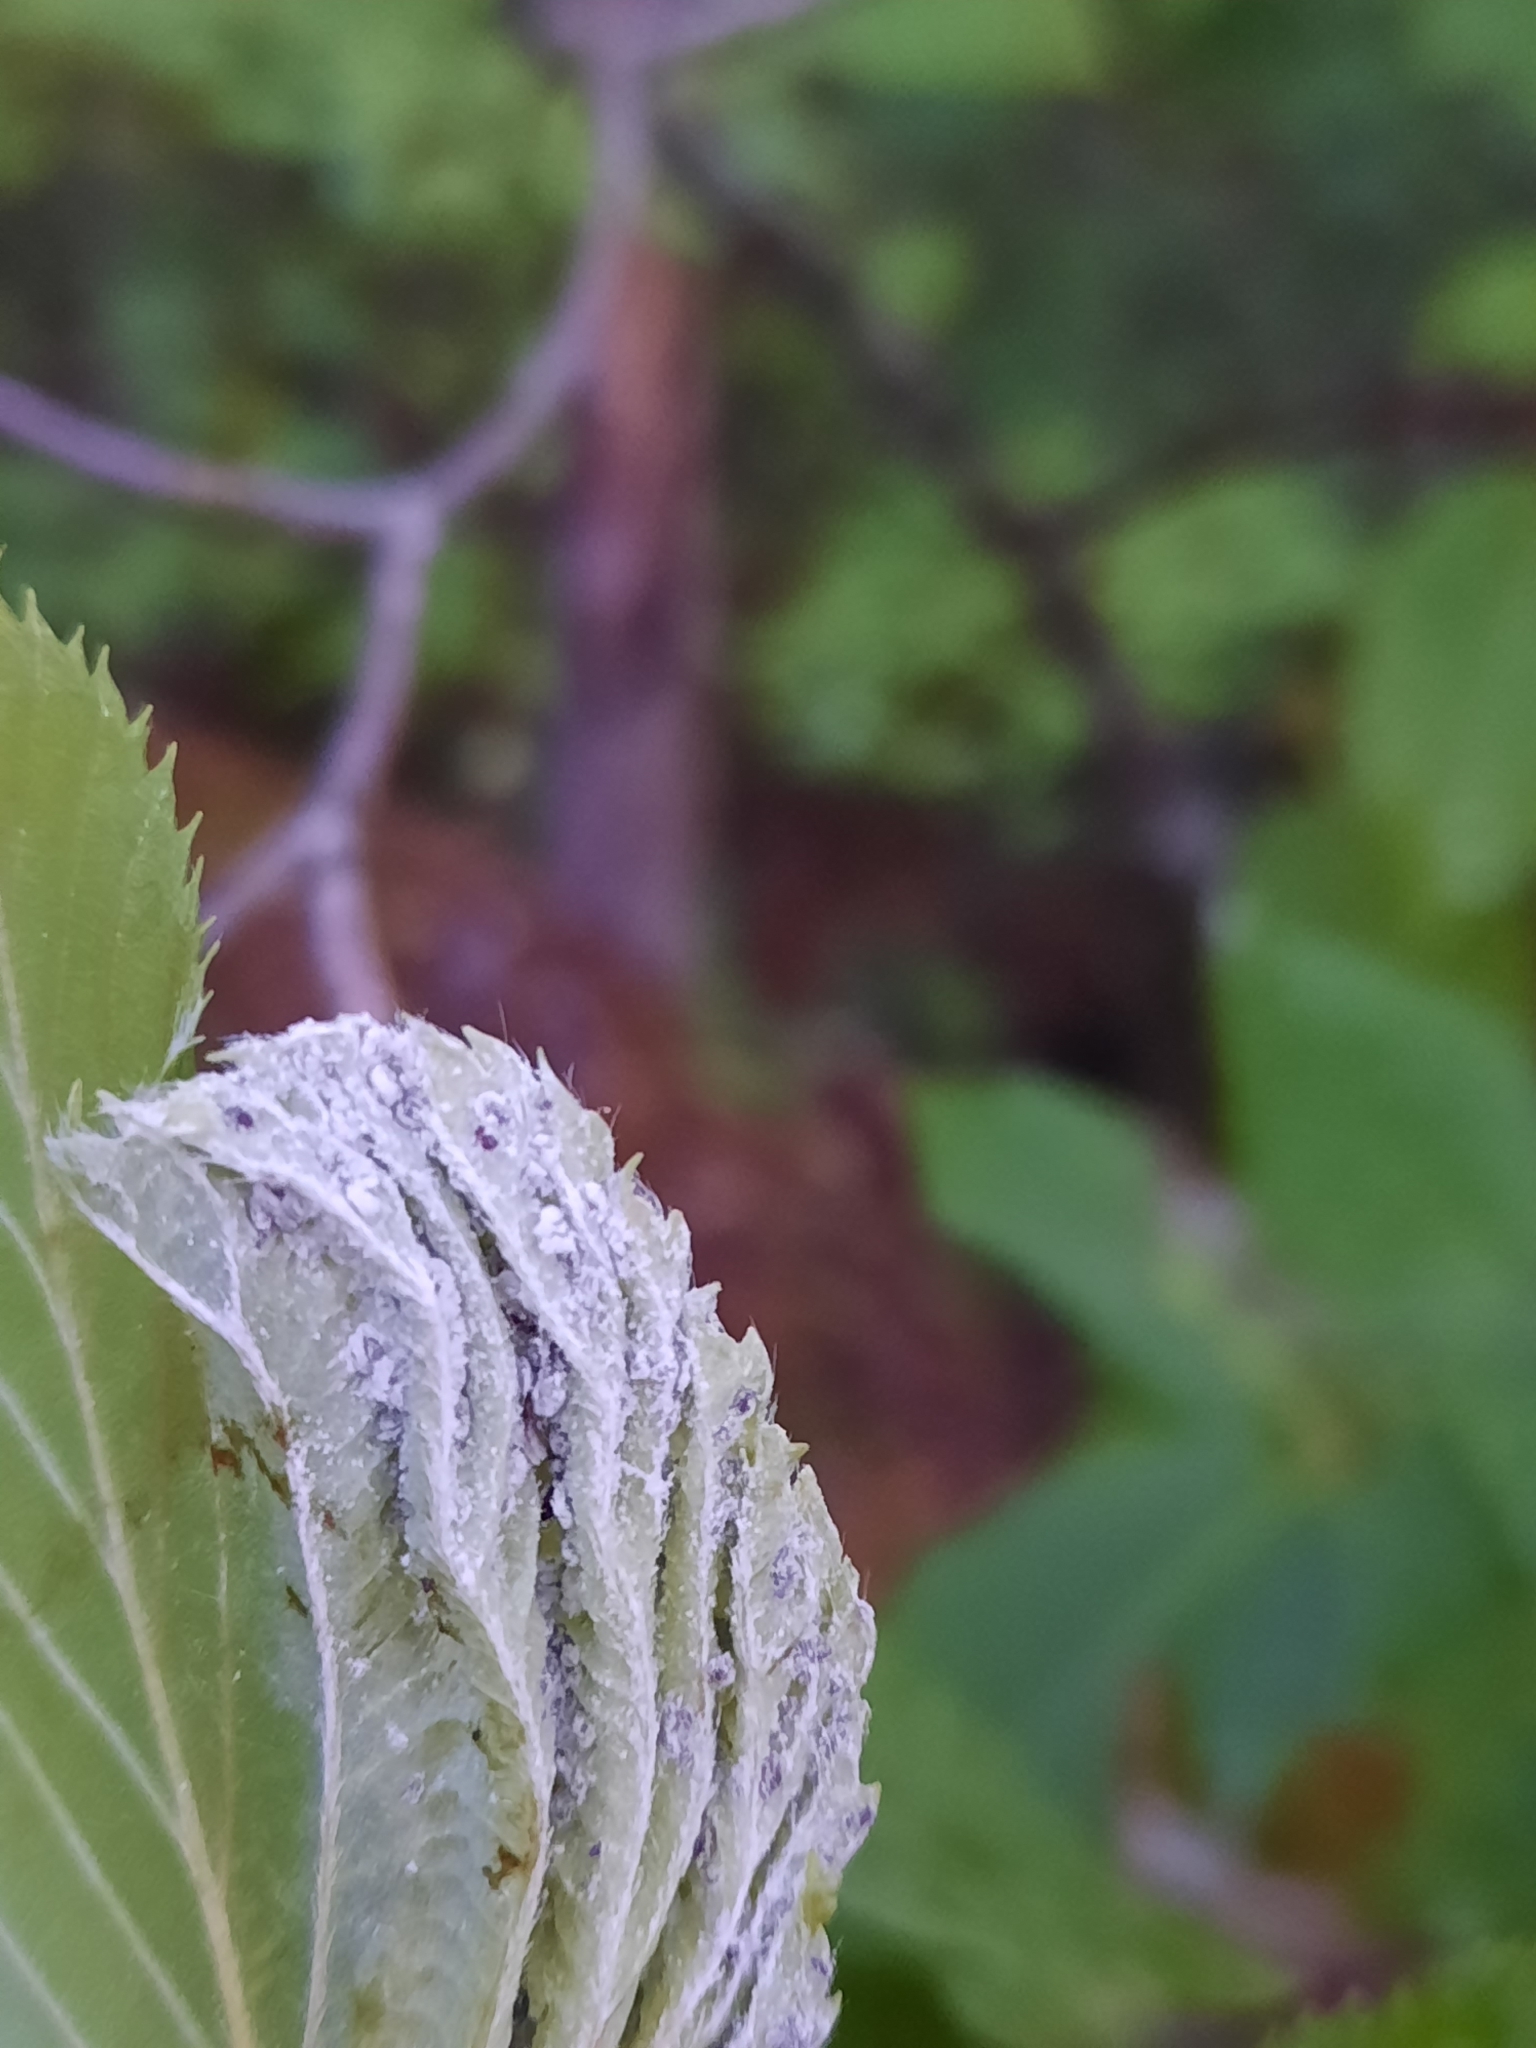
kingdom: Animalia
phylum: Arthropoda
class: Insecta
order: Hemiptera
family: Aphididae
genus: Hamamelistes
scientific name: Hamamelistes spinosus
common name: Witch hazel gall aphid
